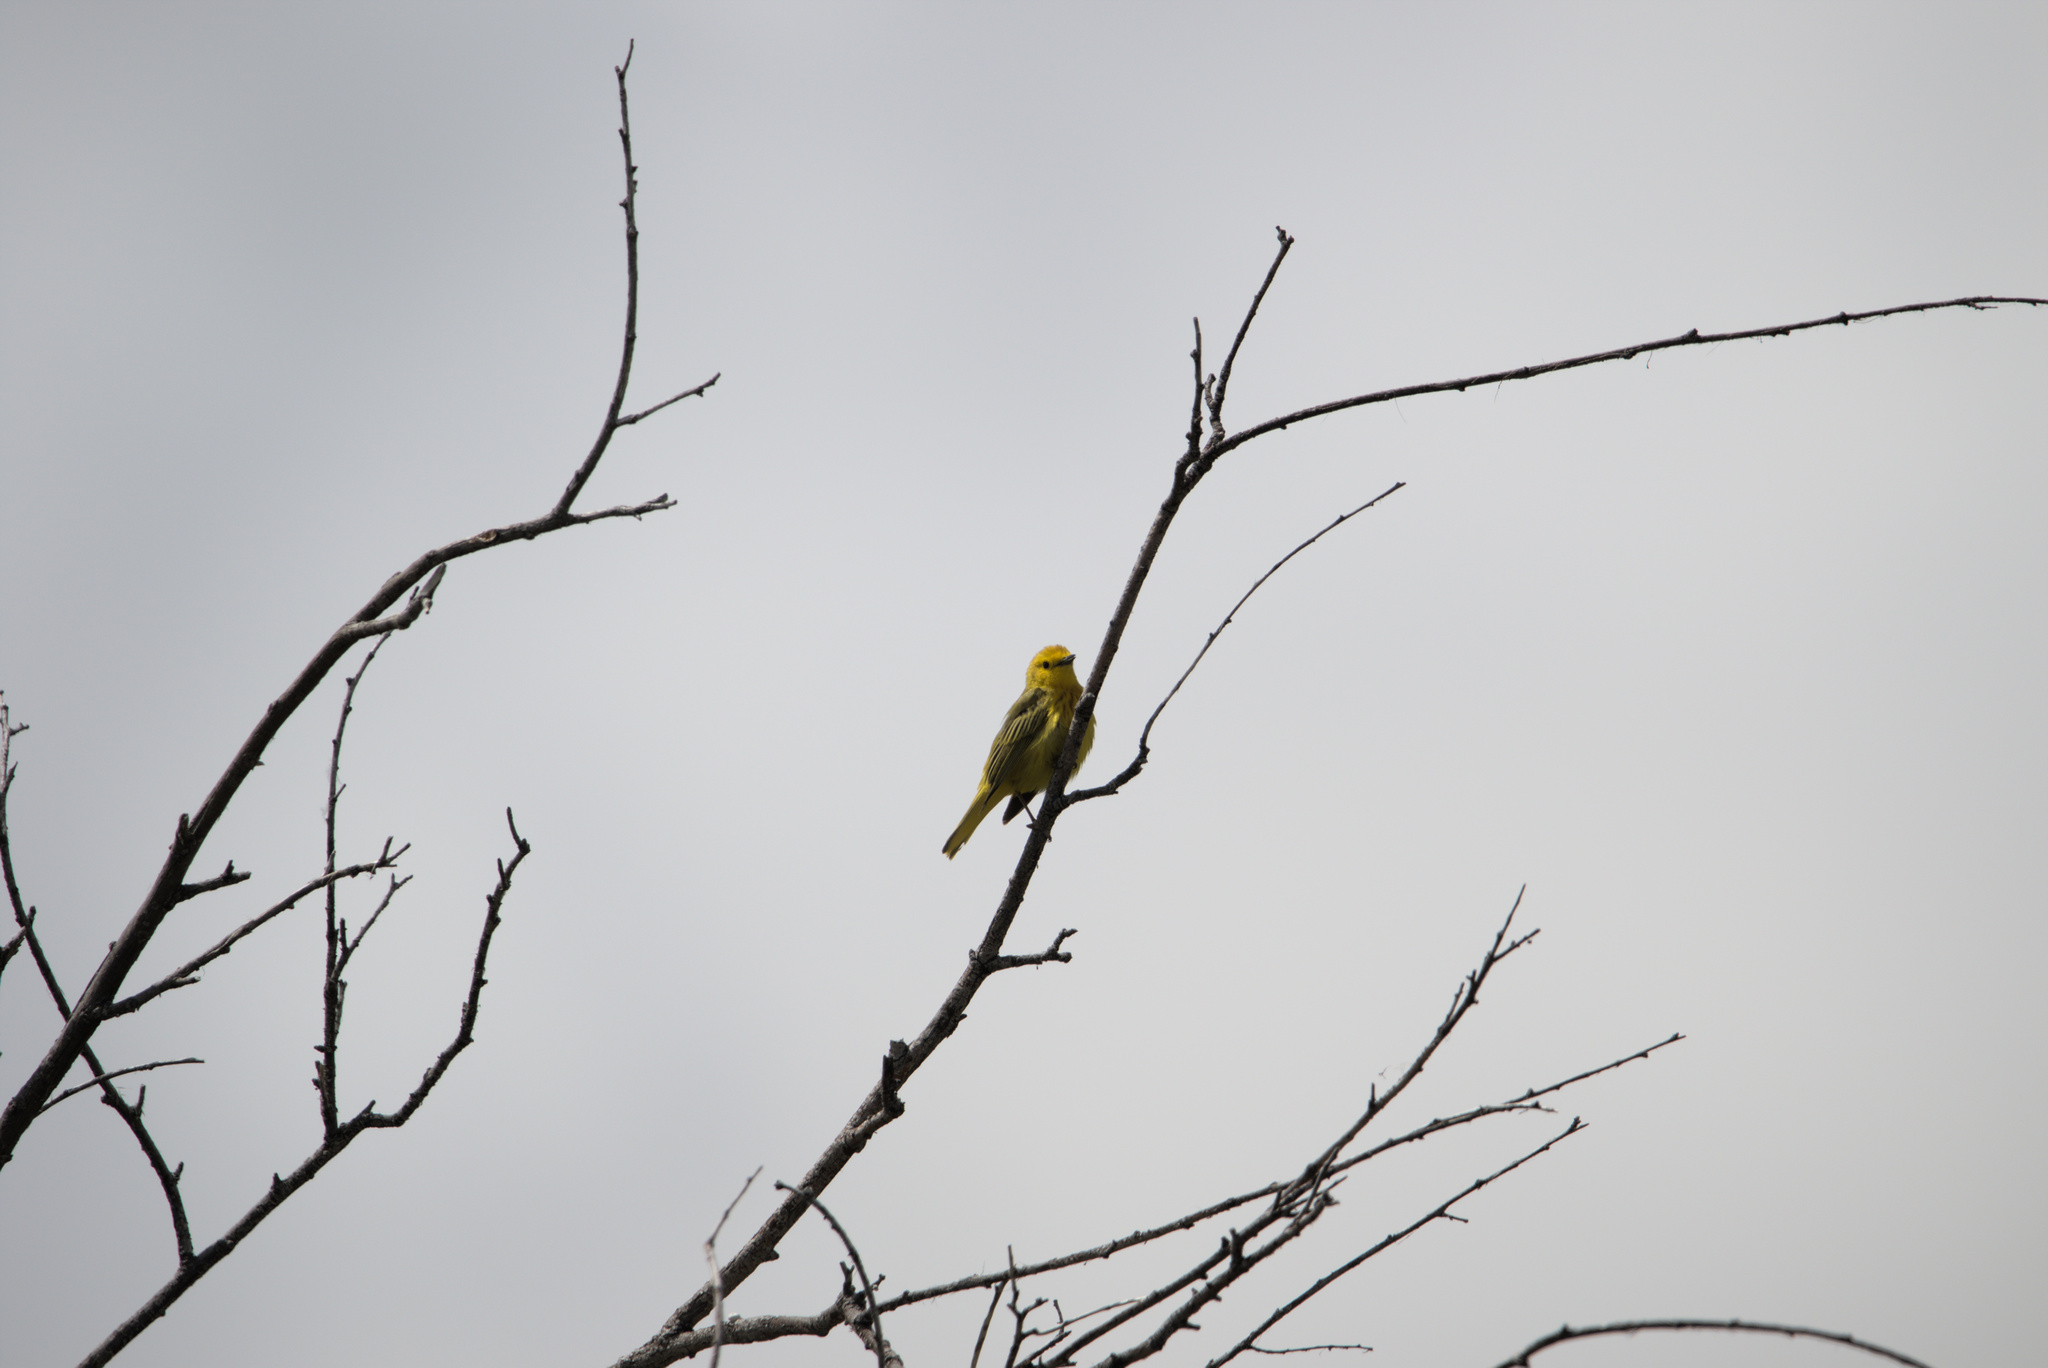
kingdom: Animalia
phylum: Chordata
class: Aves
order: Passeriformes
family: Parulidae
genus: Setophaga
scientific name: Setophaga petechia
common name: Yellow warbler
